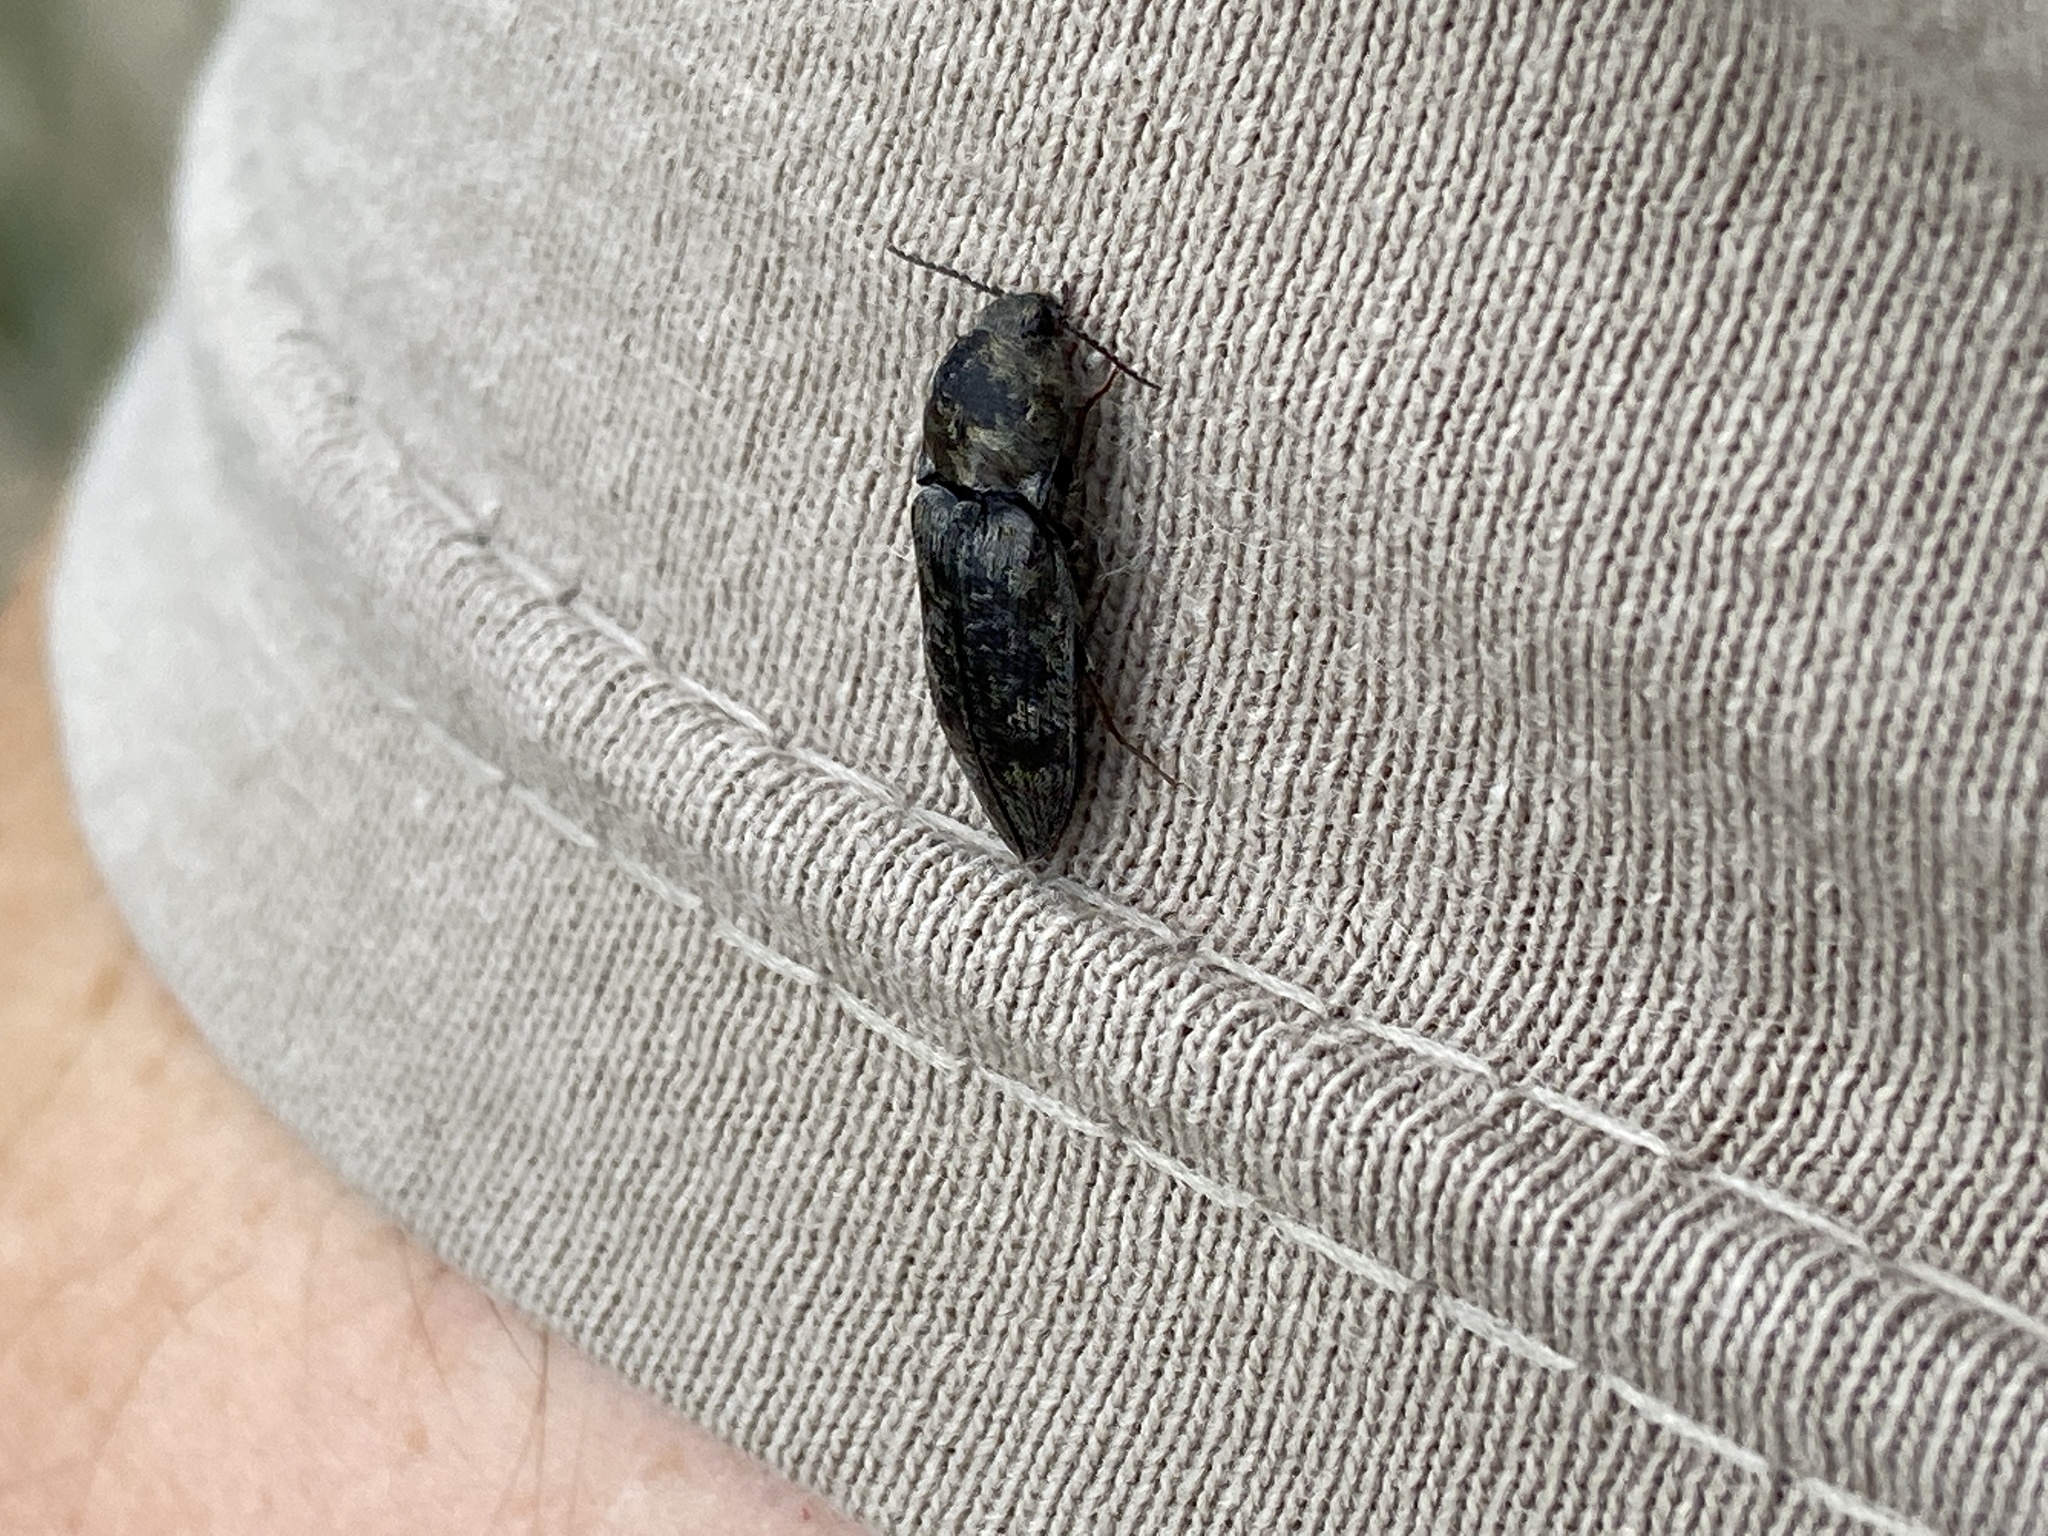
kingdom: Animalia
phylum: Arthropoda
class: Insecta
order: Coleoptera
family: Elateridae
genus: Prosternon
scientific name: Prosternon tessellatum
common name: Chequered click beetle
